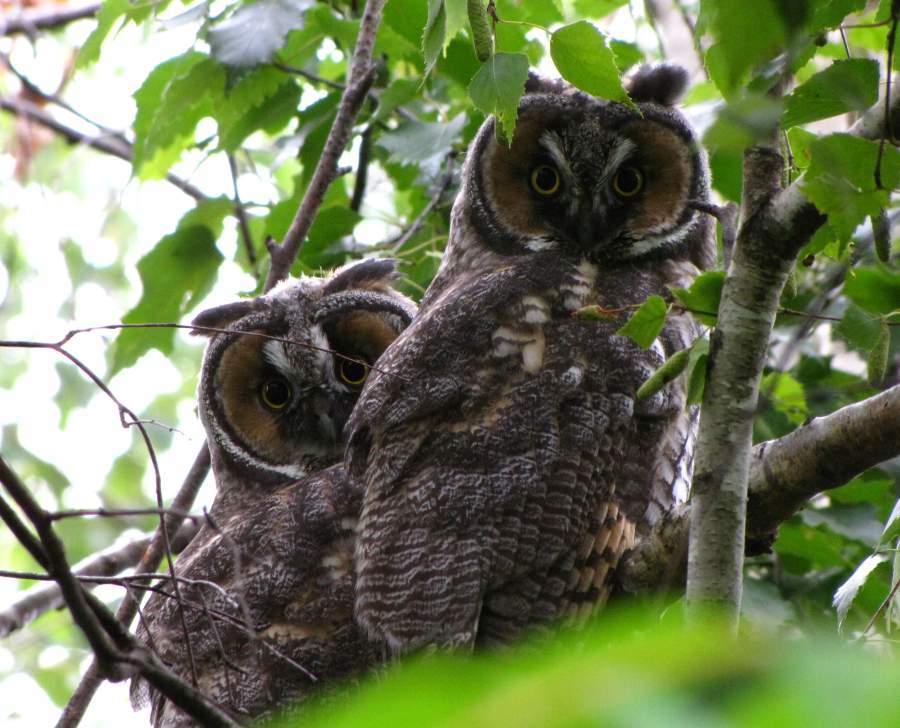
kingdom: Animalia
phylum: Chordata
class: Aves
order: Strigiformes
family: Strigidae
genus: Asio
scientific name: Asio otus
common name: Long-eared owl
